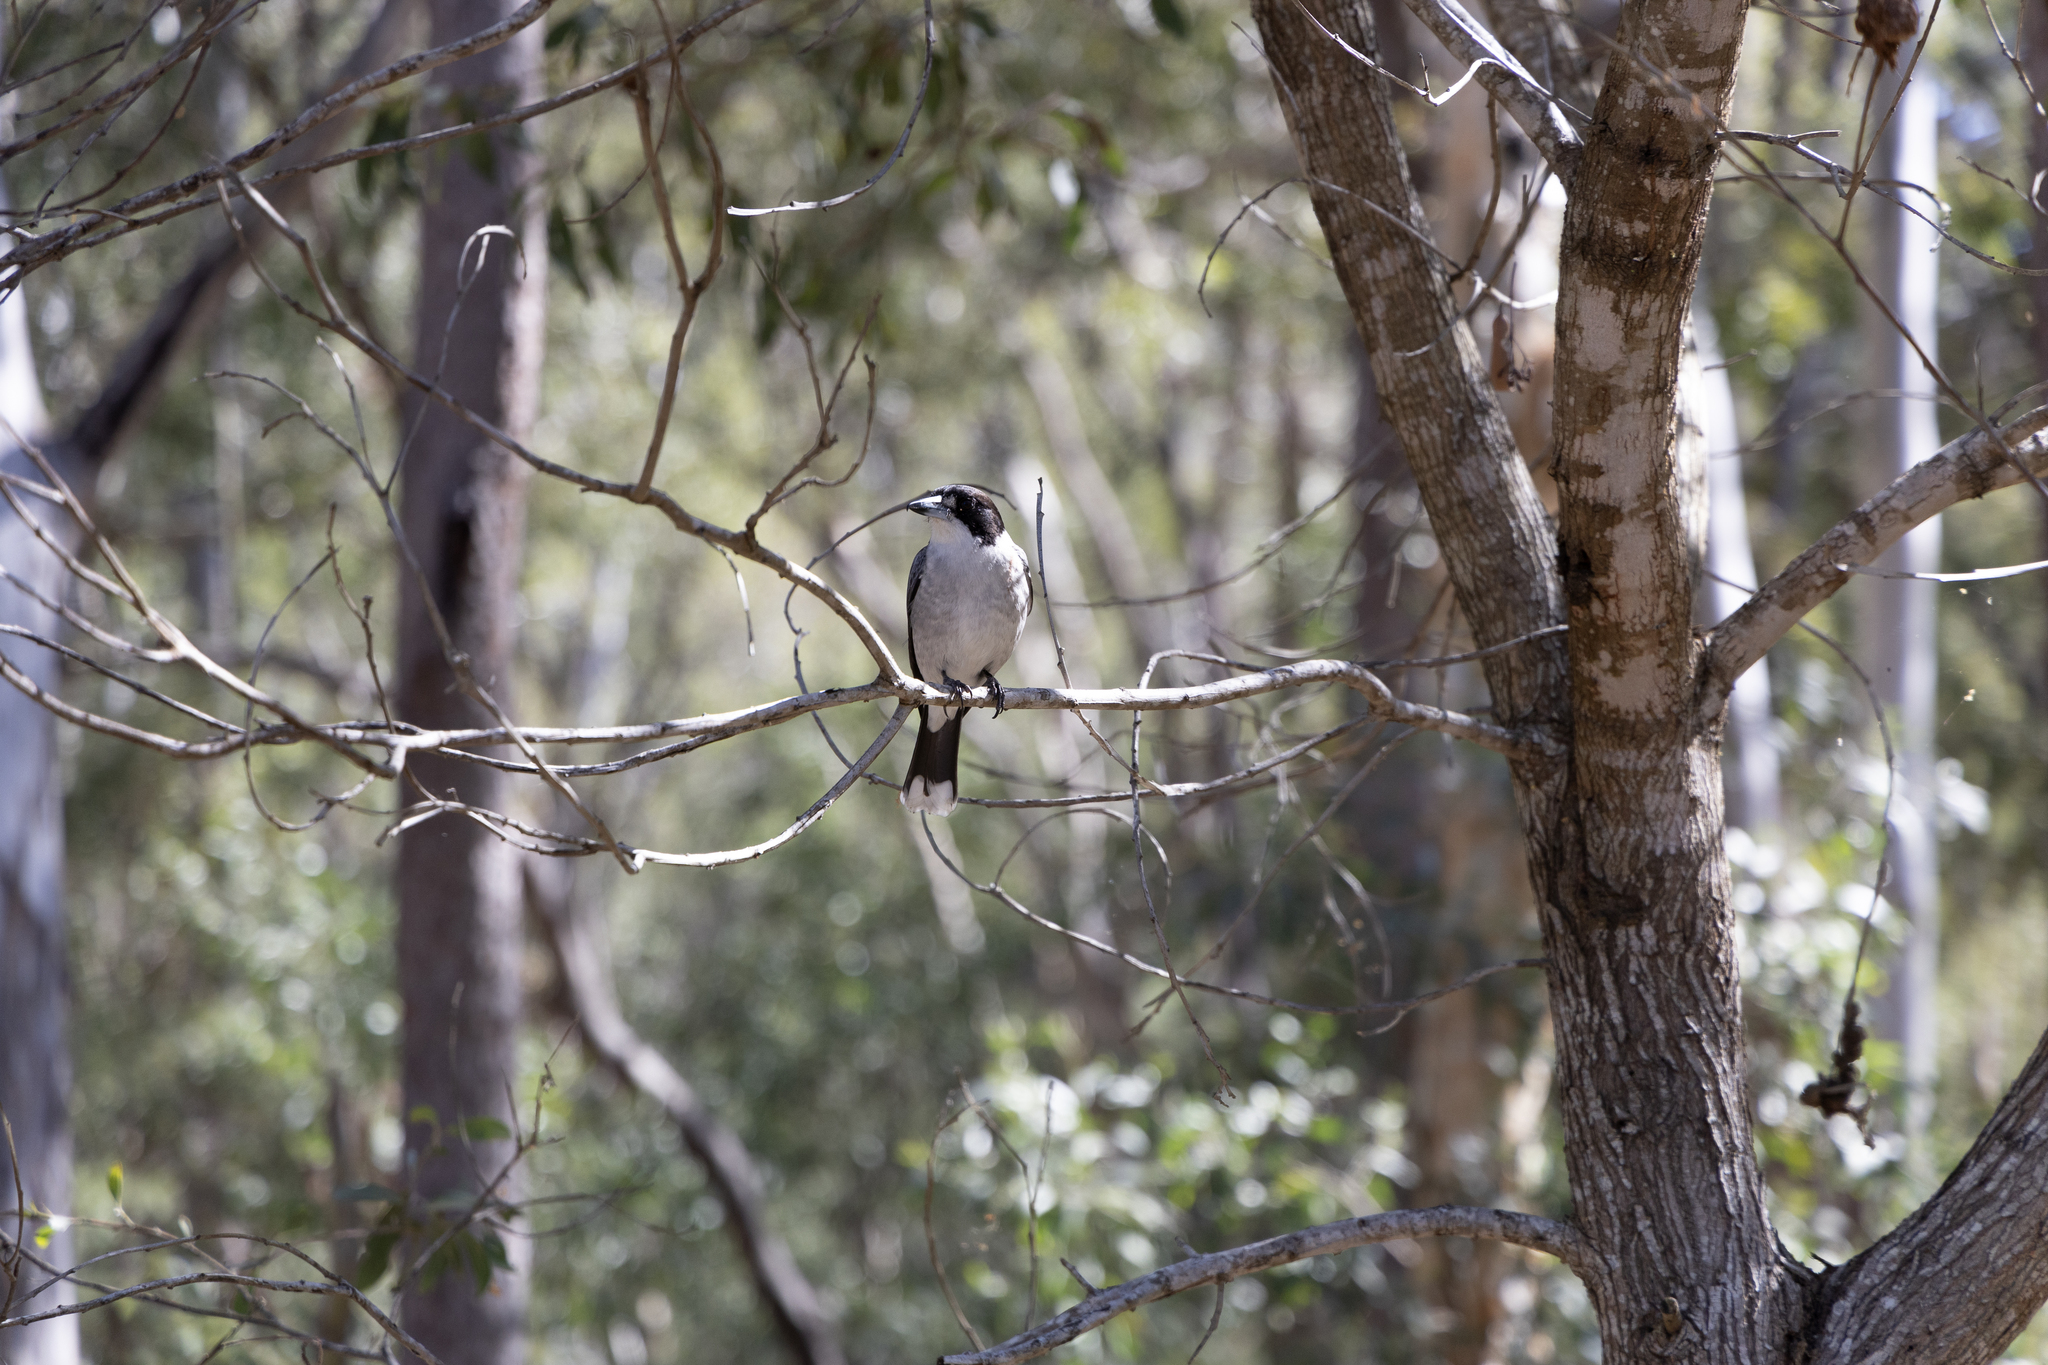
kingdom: Animalia
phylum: Chordata
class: Aves
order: Passeriformes
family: Cracticidae
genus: Cracticus
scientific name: Cracticus torquatus
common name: Grey butcherbird
